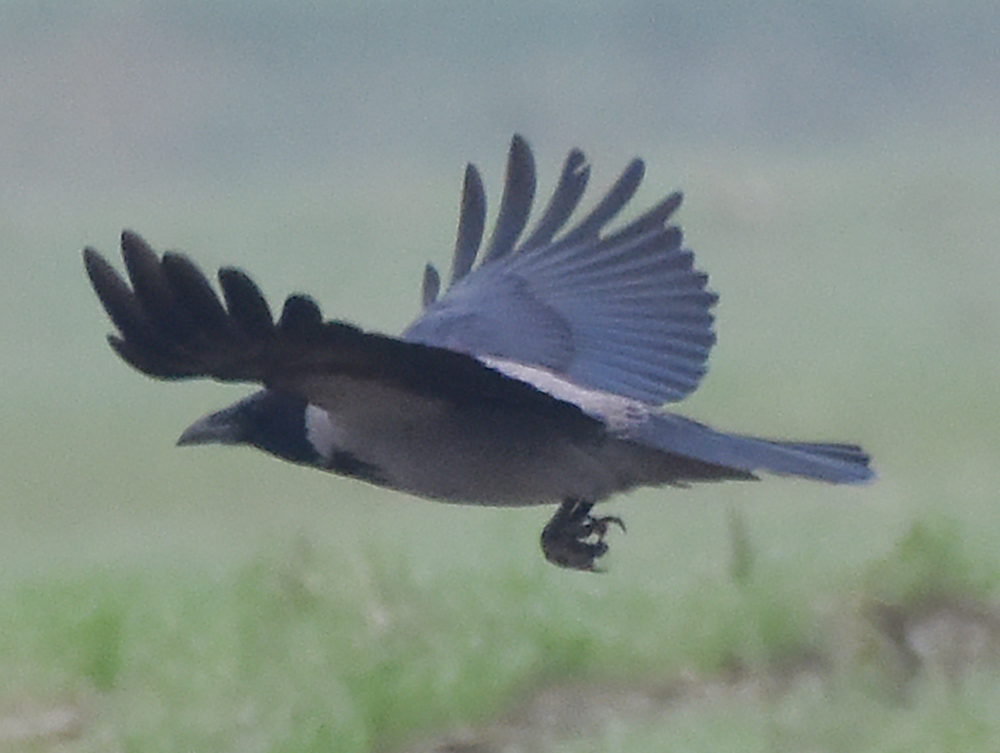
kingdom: Animalia
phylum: Chordata
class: Aves
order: Passeriformes
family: Corvidae
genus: Corvus
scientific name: Corvus cornix
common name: Hooded crow
